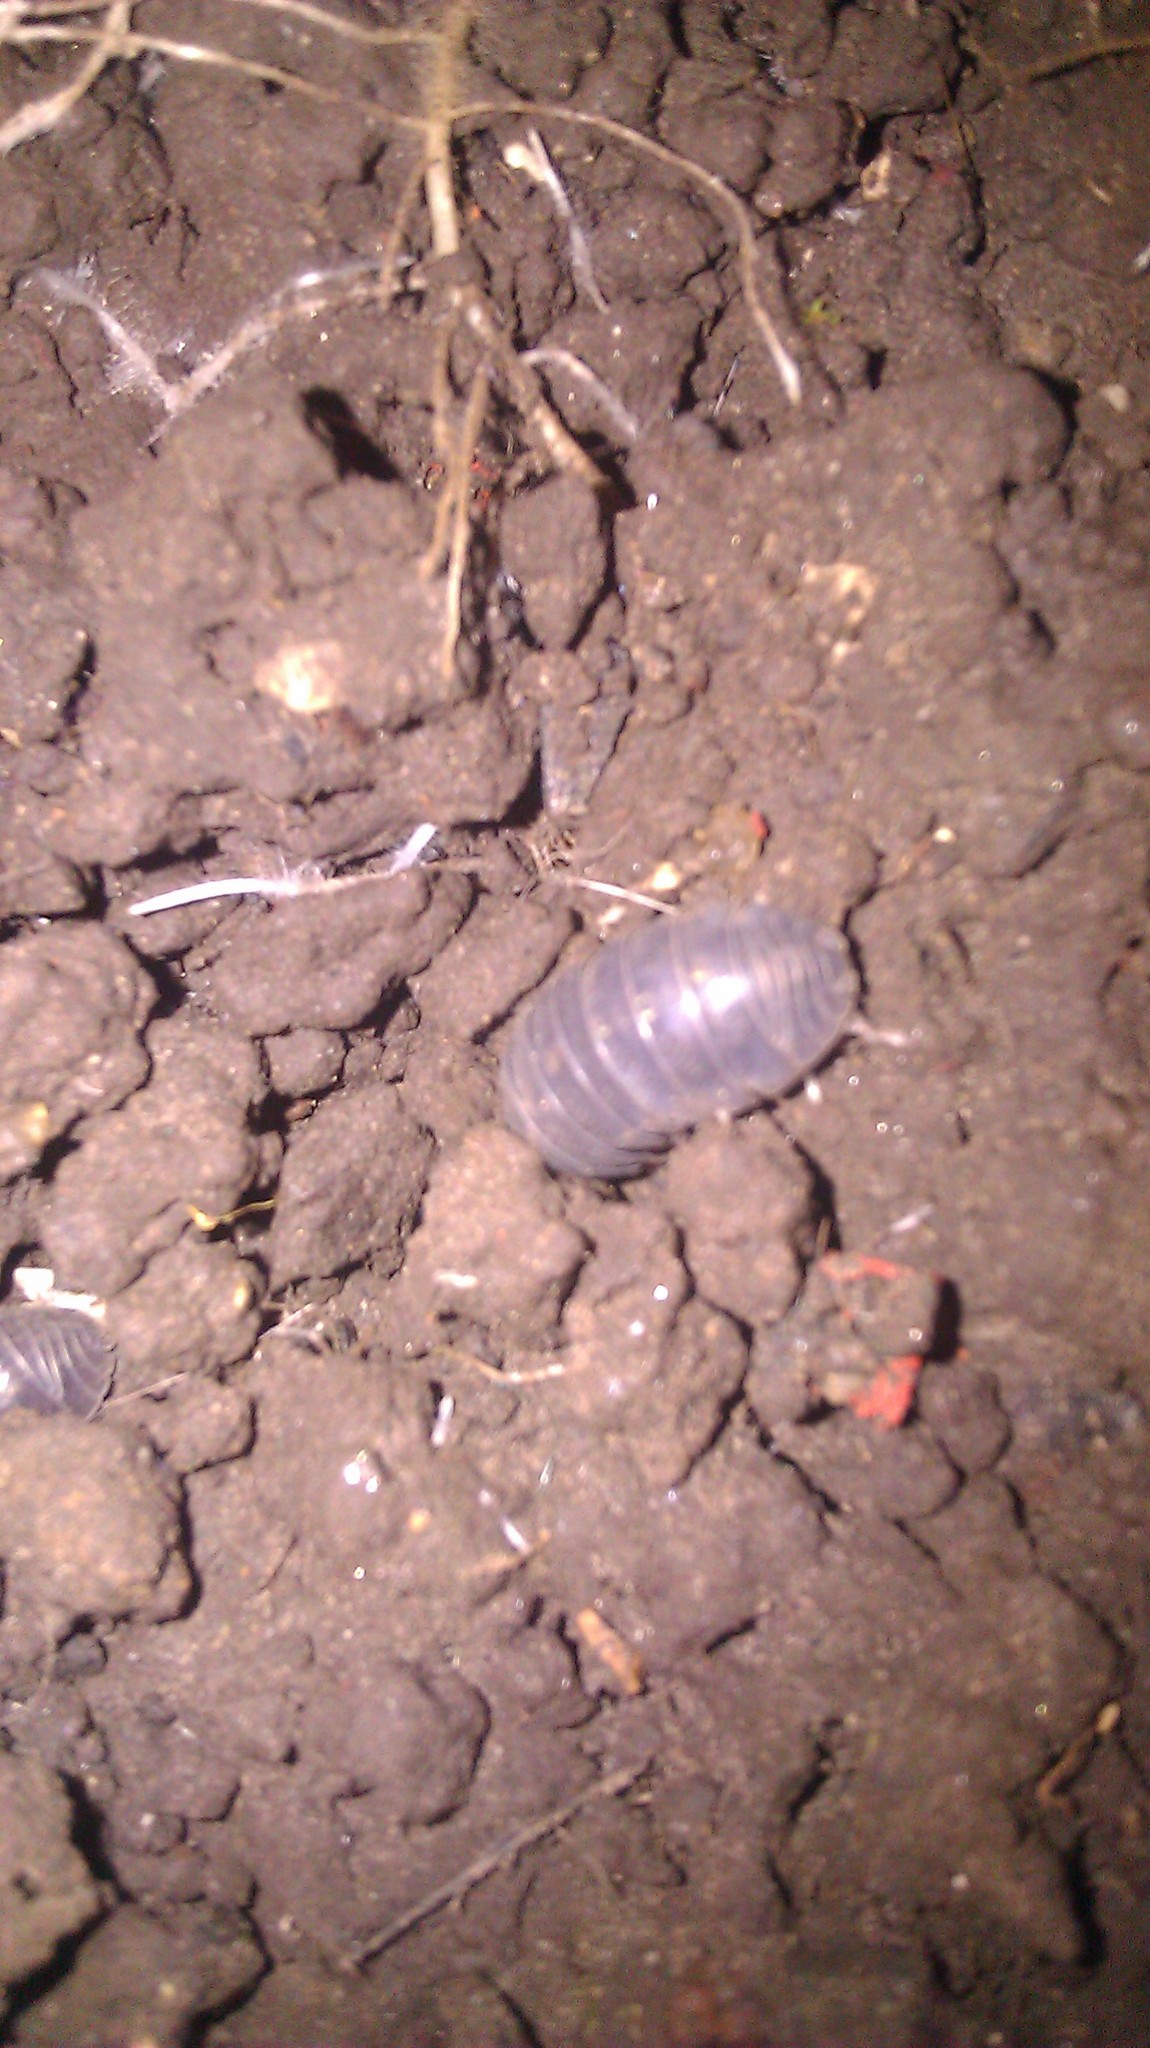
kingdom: Animalia
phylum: Arthropoda
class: Malacostraca
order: Isopoda
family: Armadillidiidae
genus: Armadillidium
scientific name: Armadillidium vulgare
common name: Common pill woodlouse
